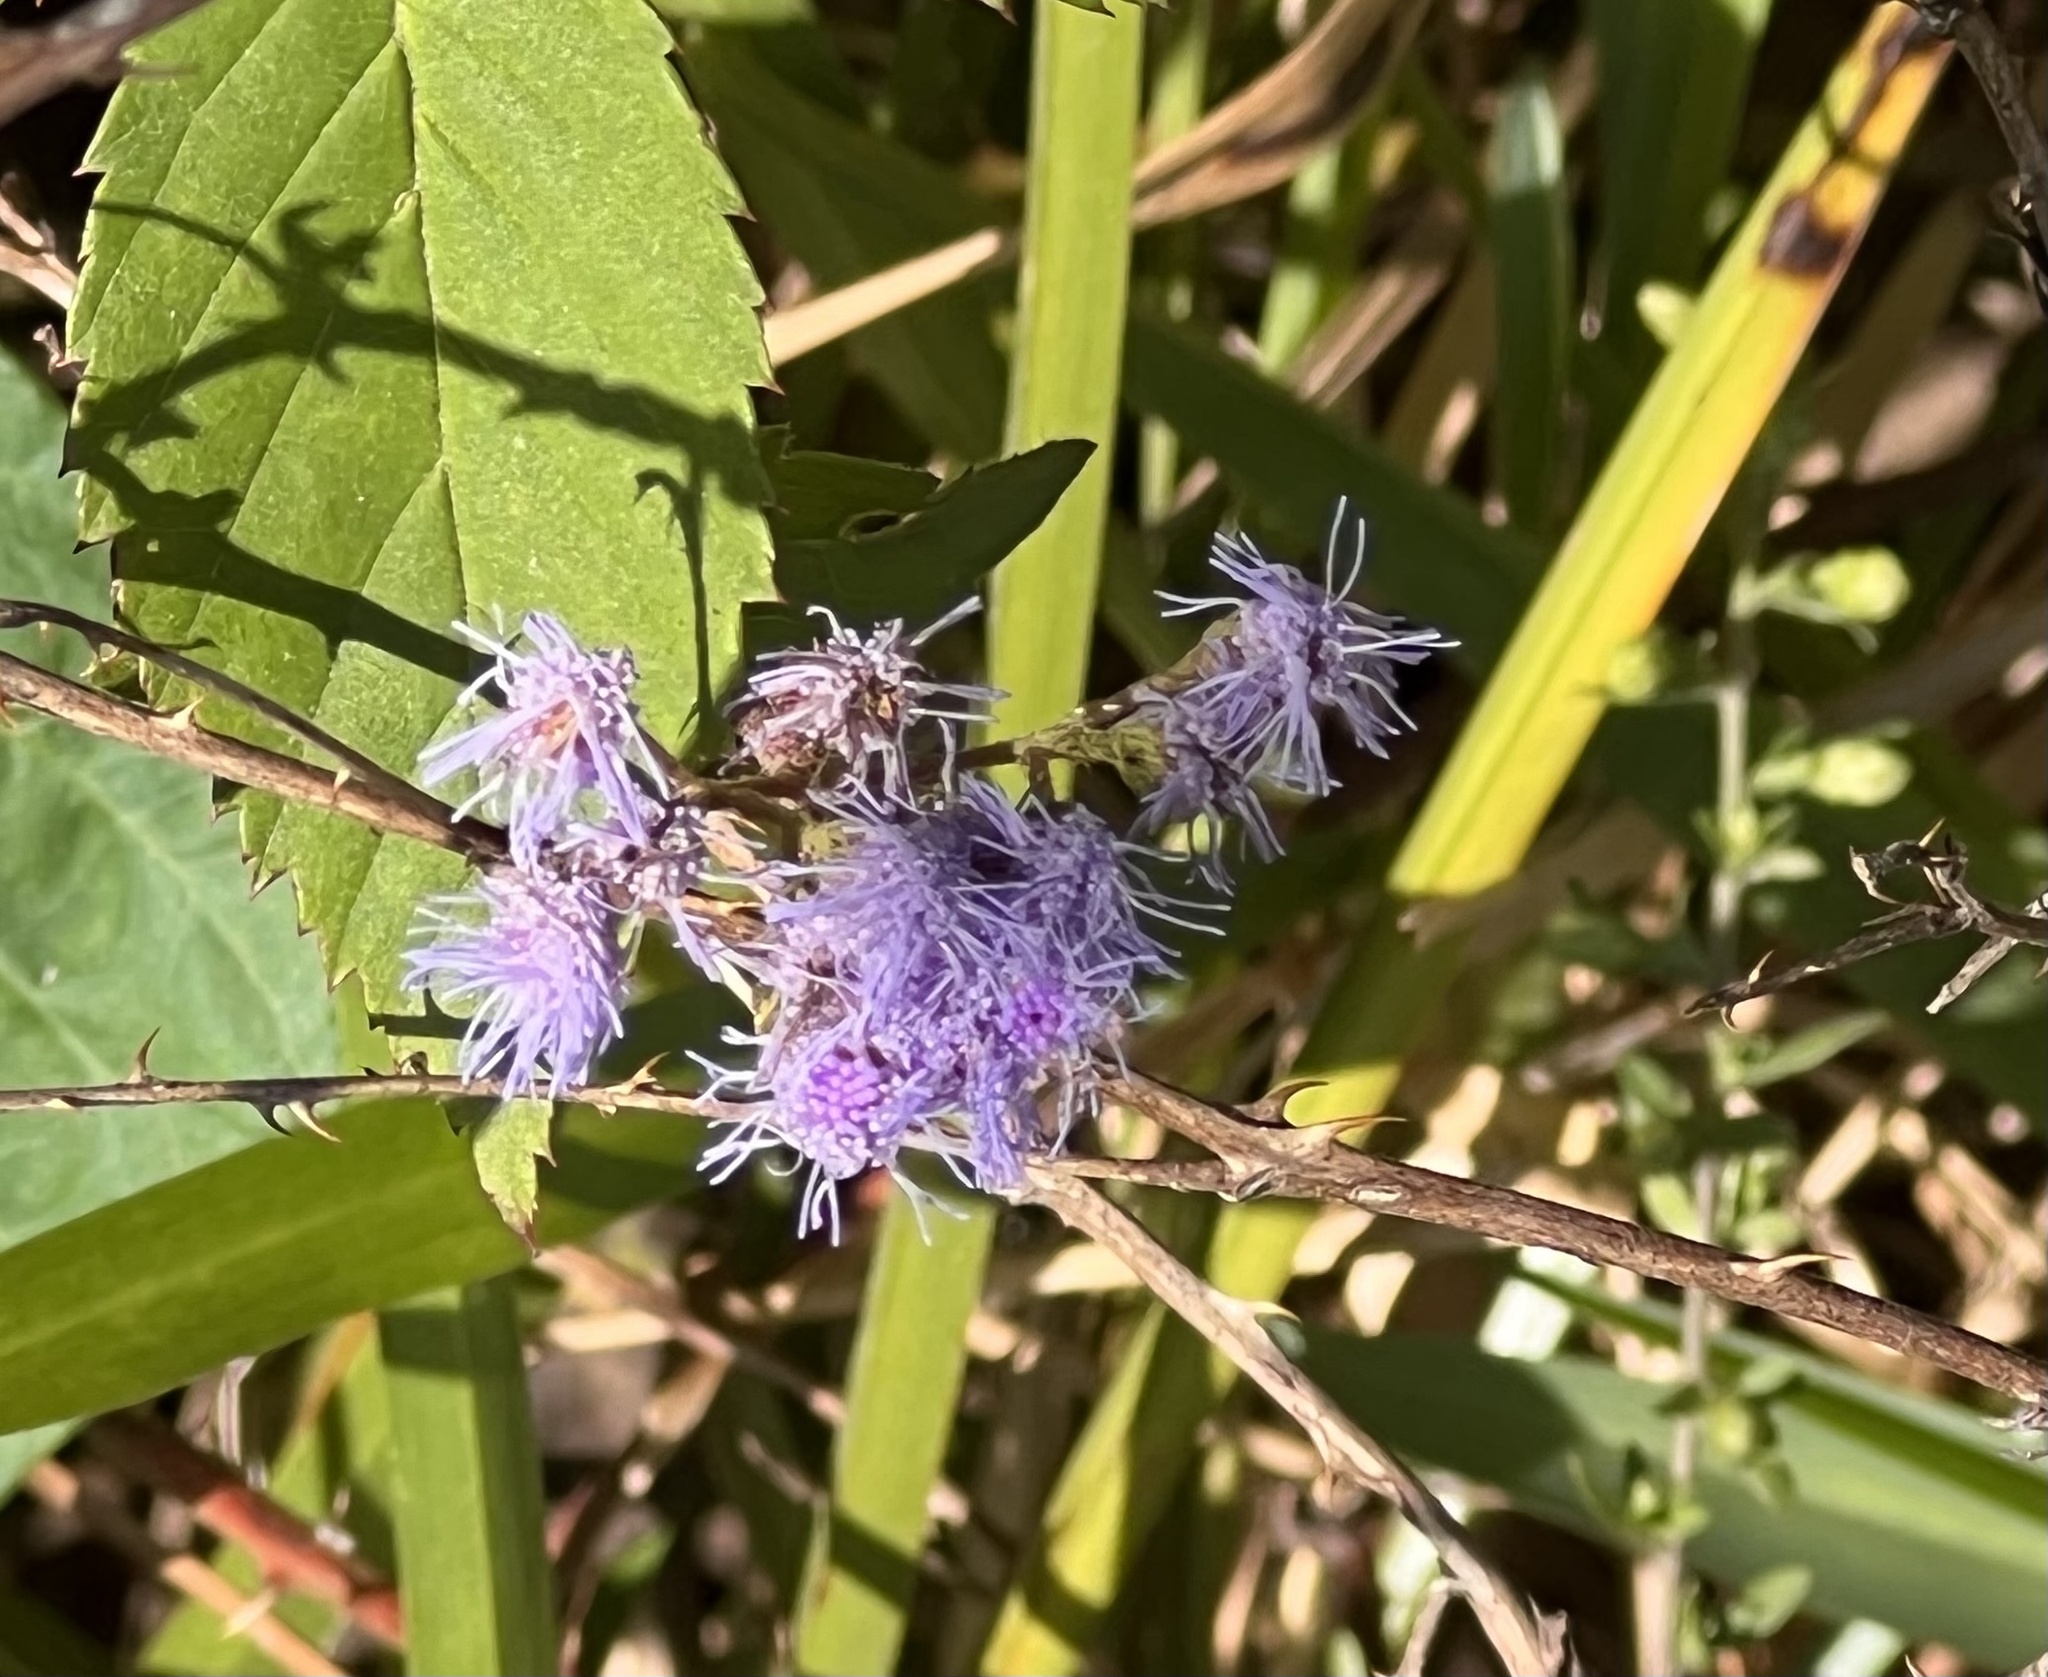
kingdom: Plantae
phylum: Tracheophyta
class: Magnoliopsida
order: Asterales
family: Asteraceae
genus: Conoclinium
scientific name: Conoclinium coelestinum
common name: Blue mistflower
